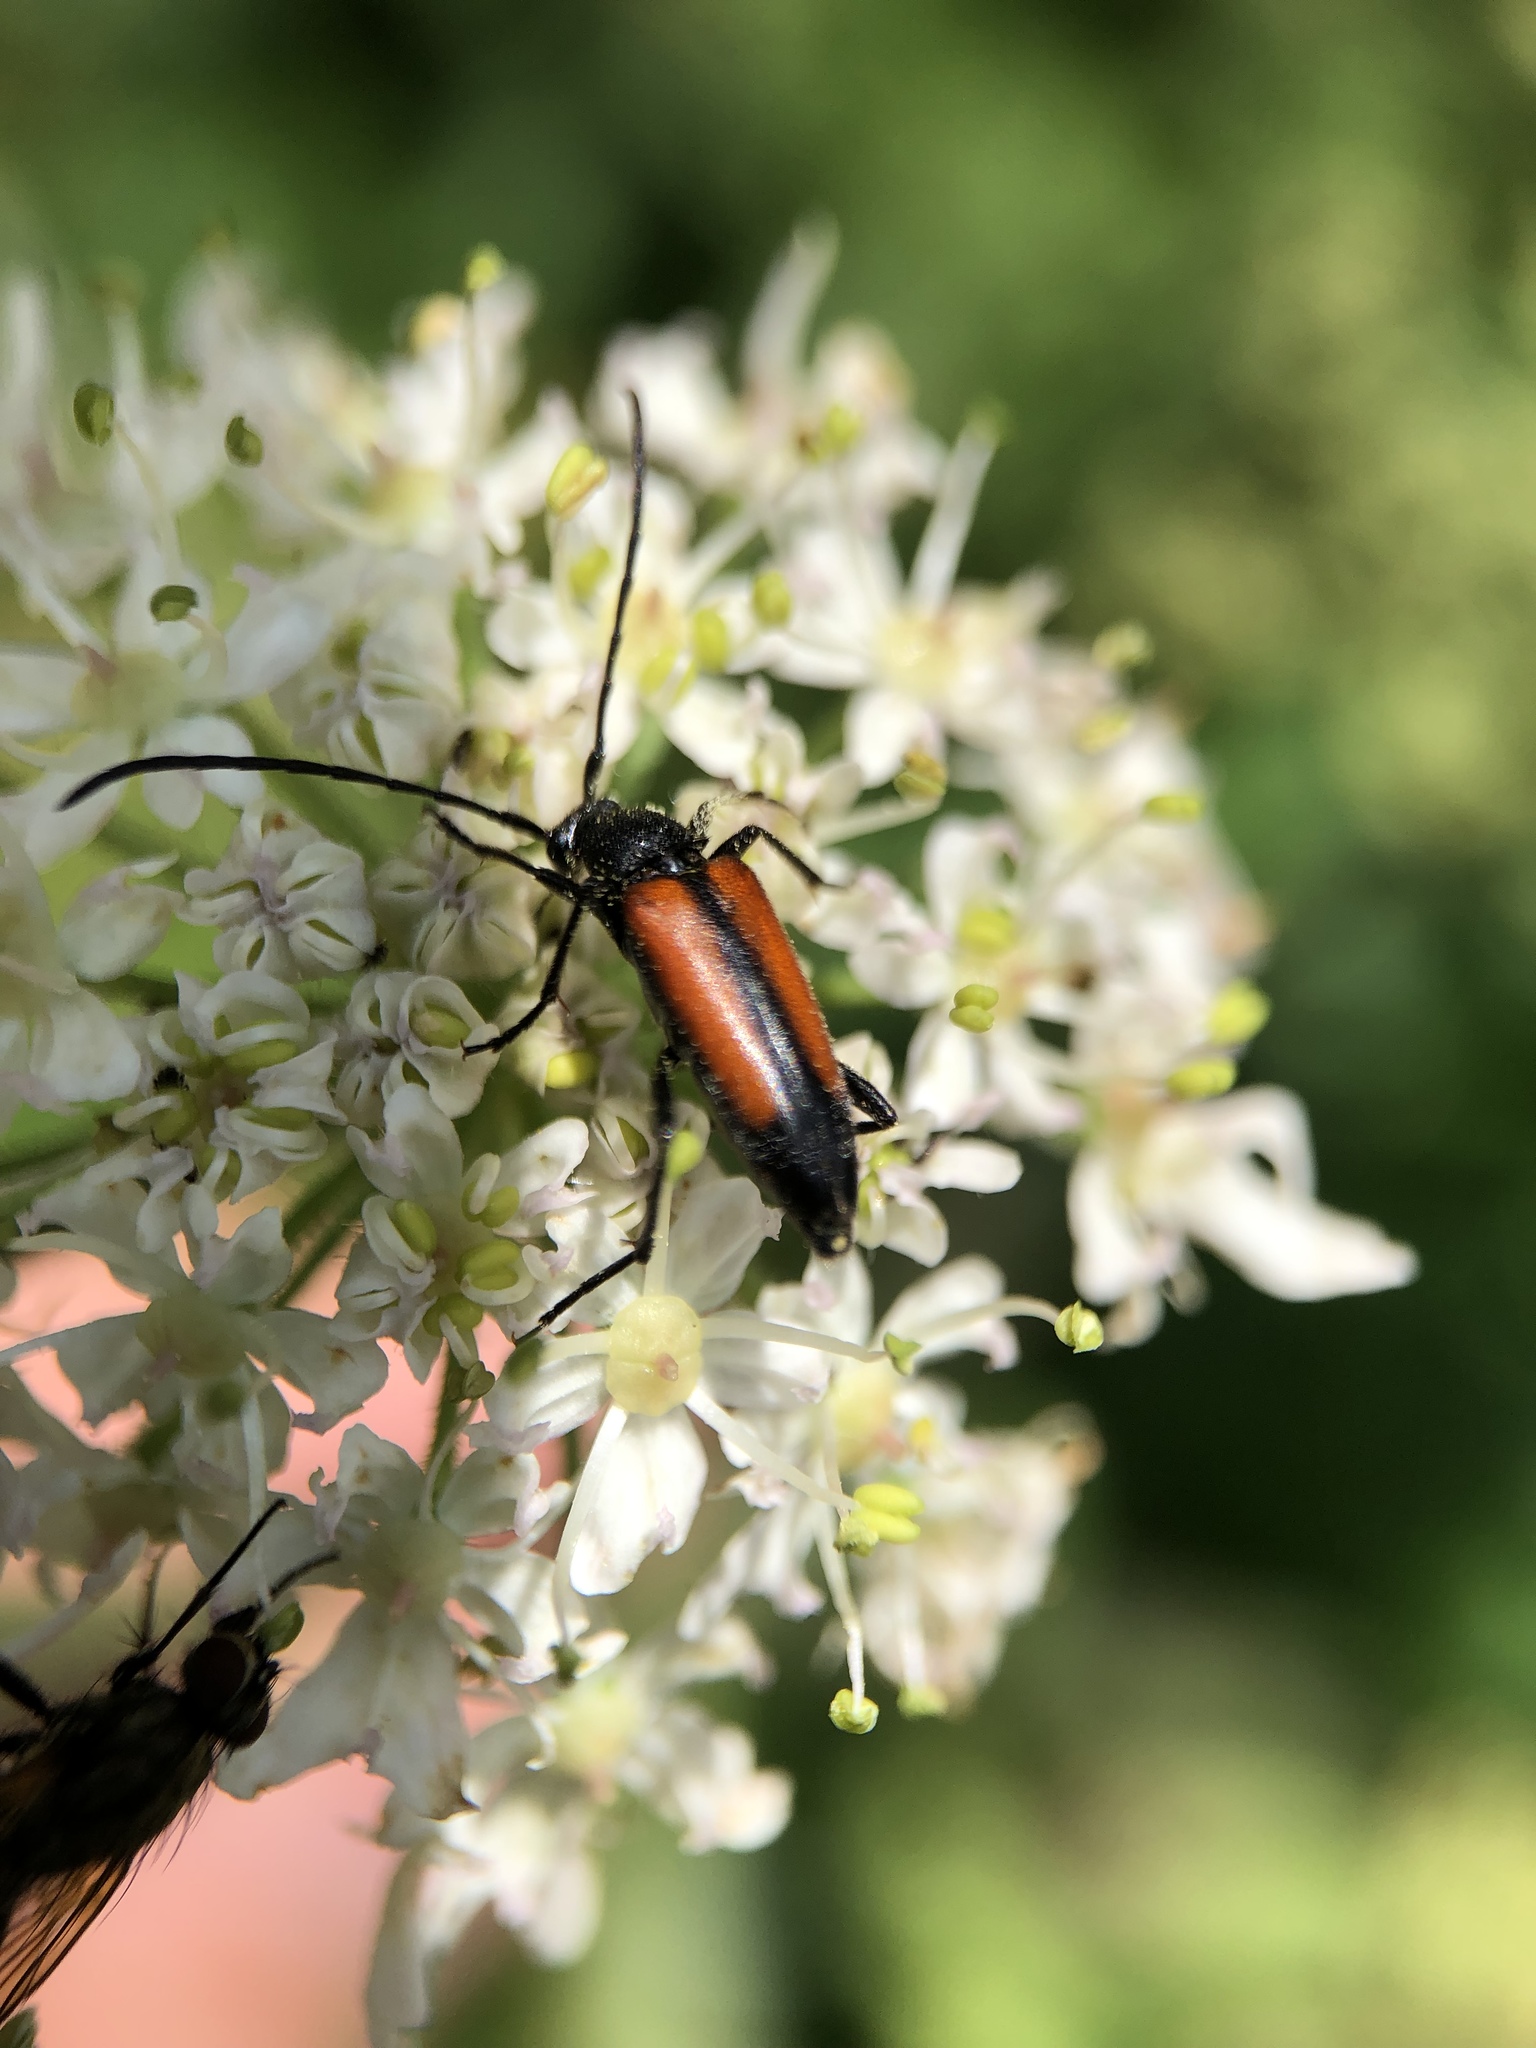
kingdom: Animalia
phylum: Arthropoda
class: Insecta
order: Coleoptera
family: Cerambycidae
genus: Stenurella
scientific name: Stenurella melanura
